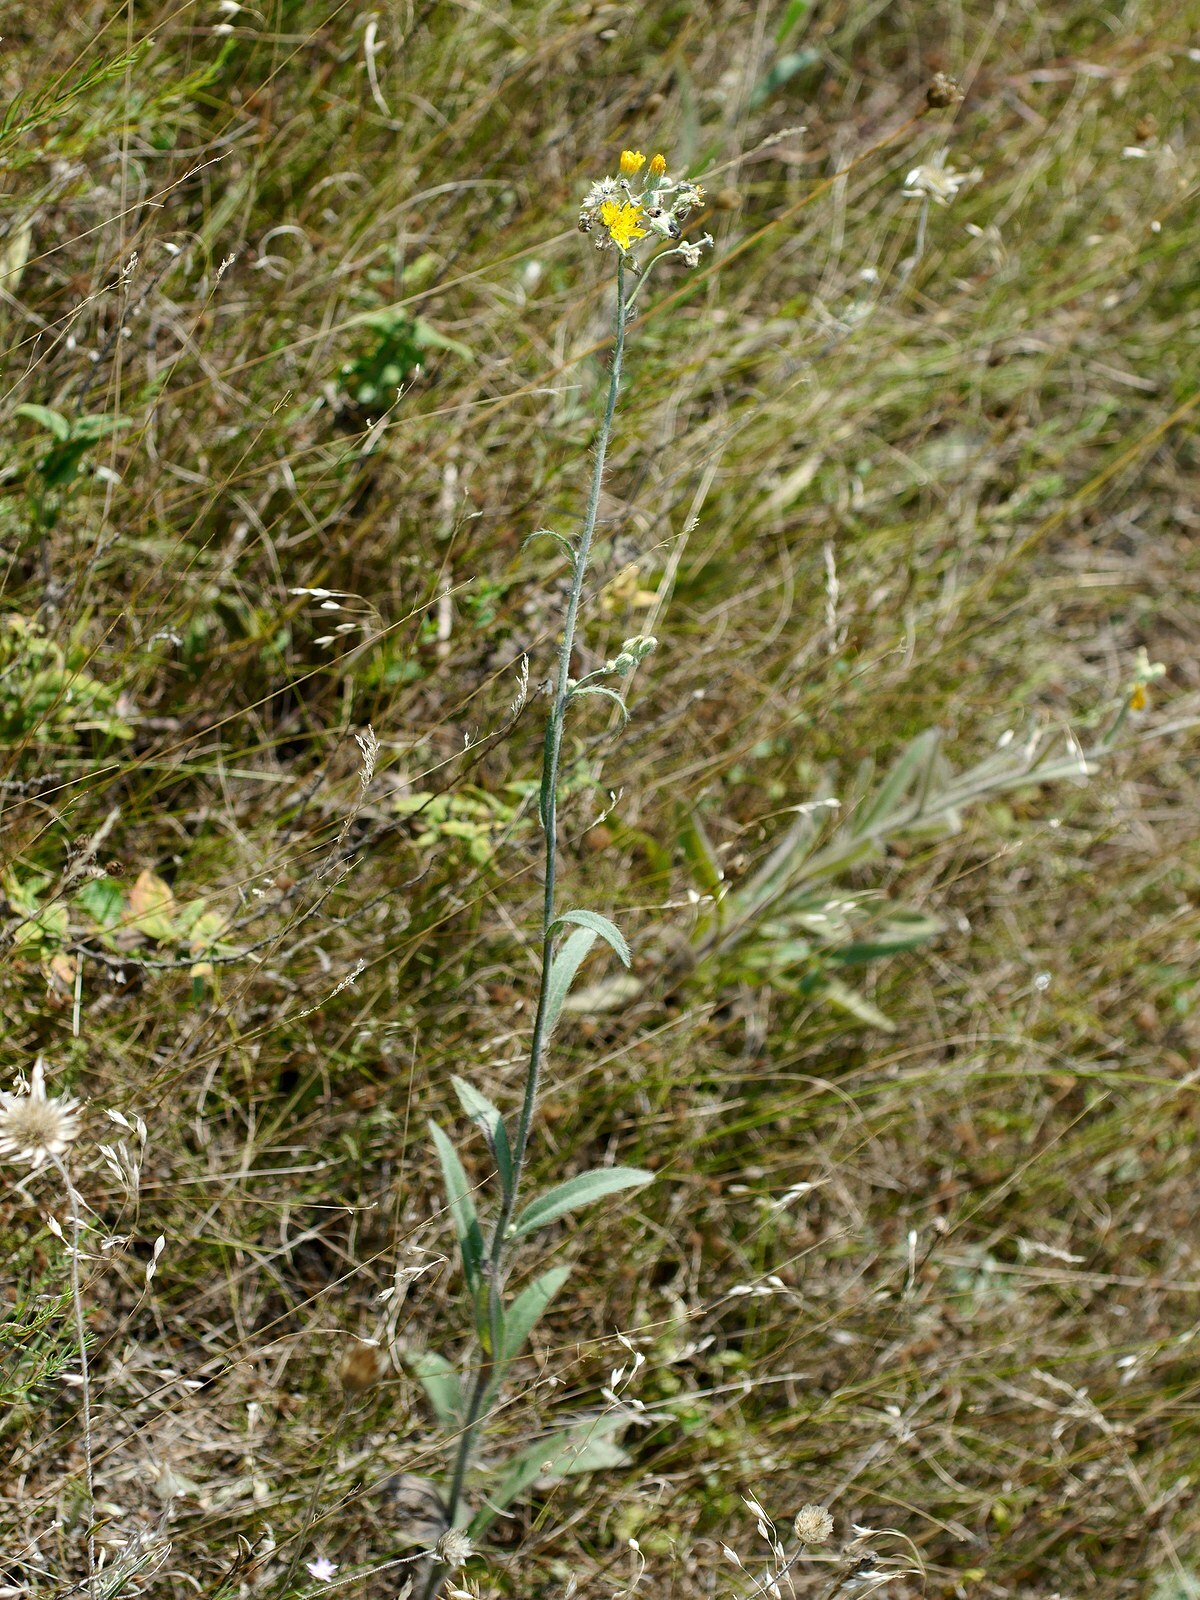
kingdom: Plantae
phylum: Tracheophyta
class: Magnoliopsida
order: Asterales
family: Asteraceae
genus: Pilosella
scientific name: Pilosella echioides
